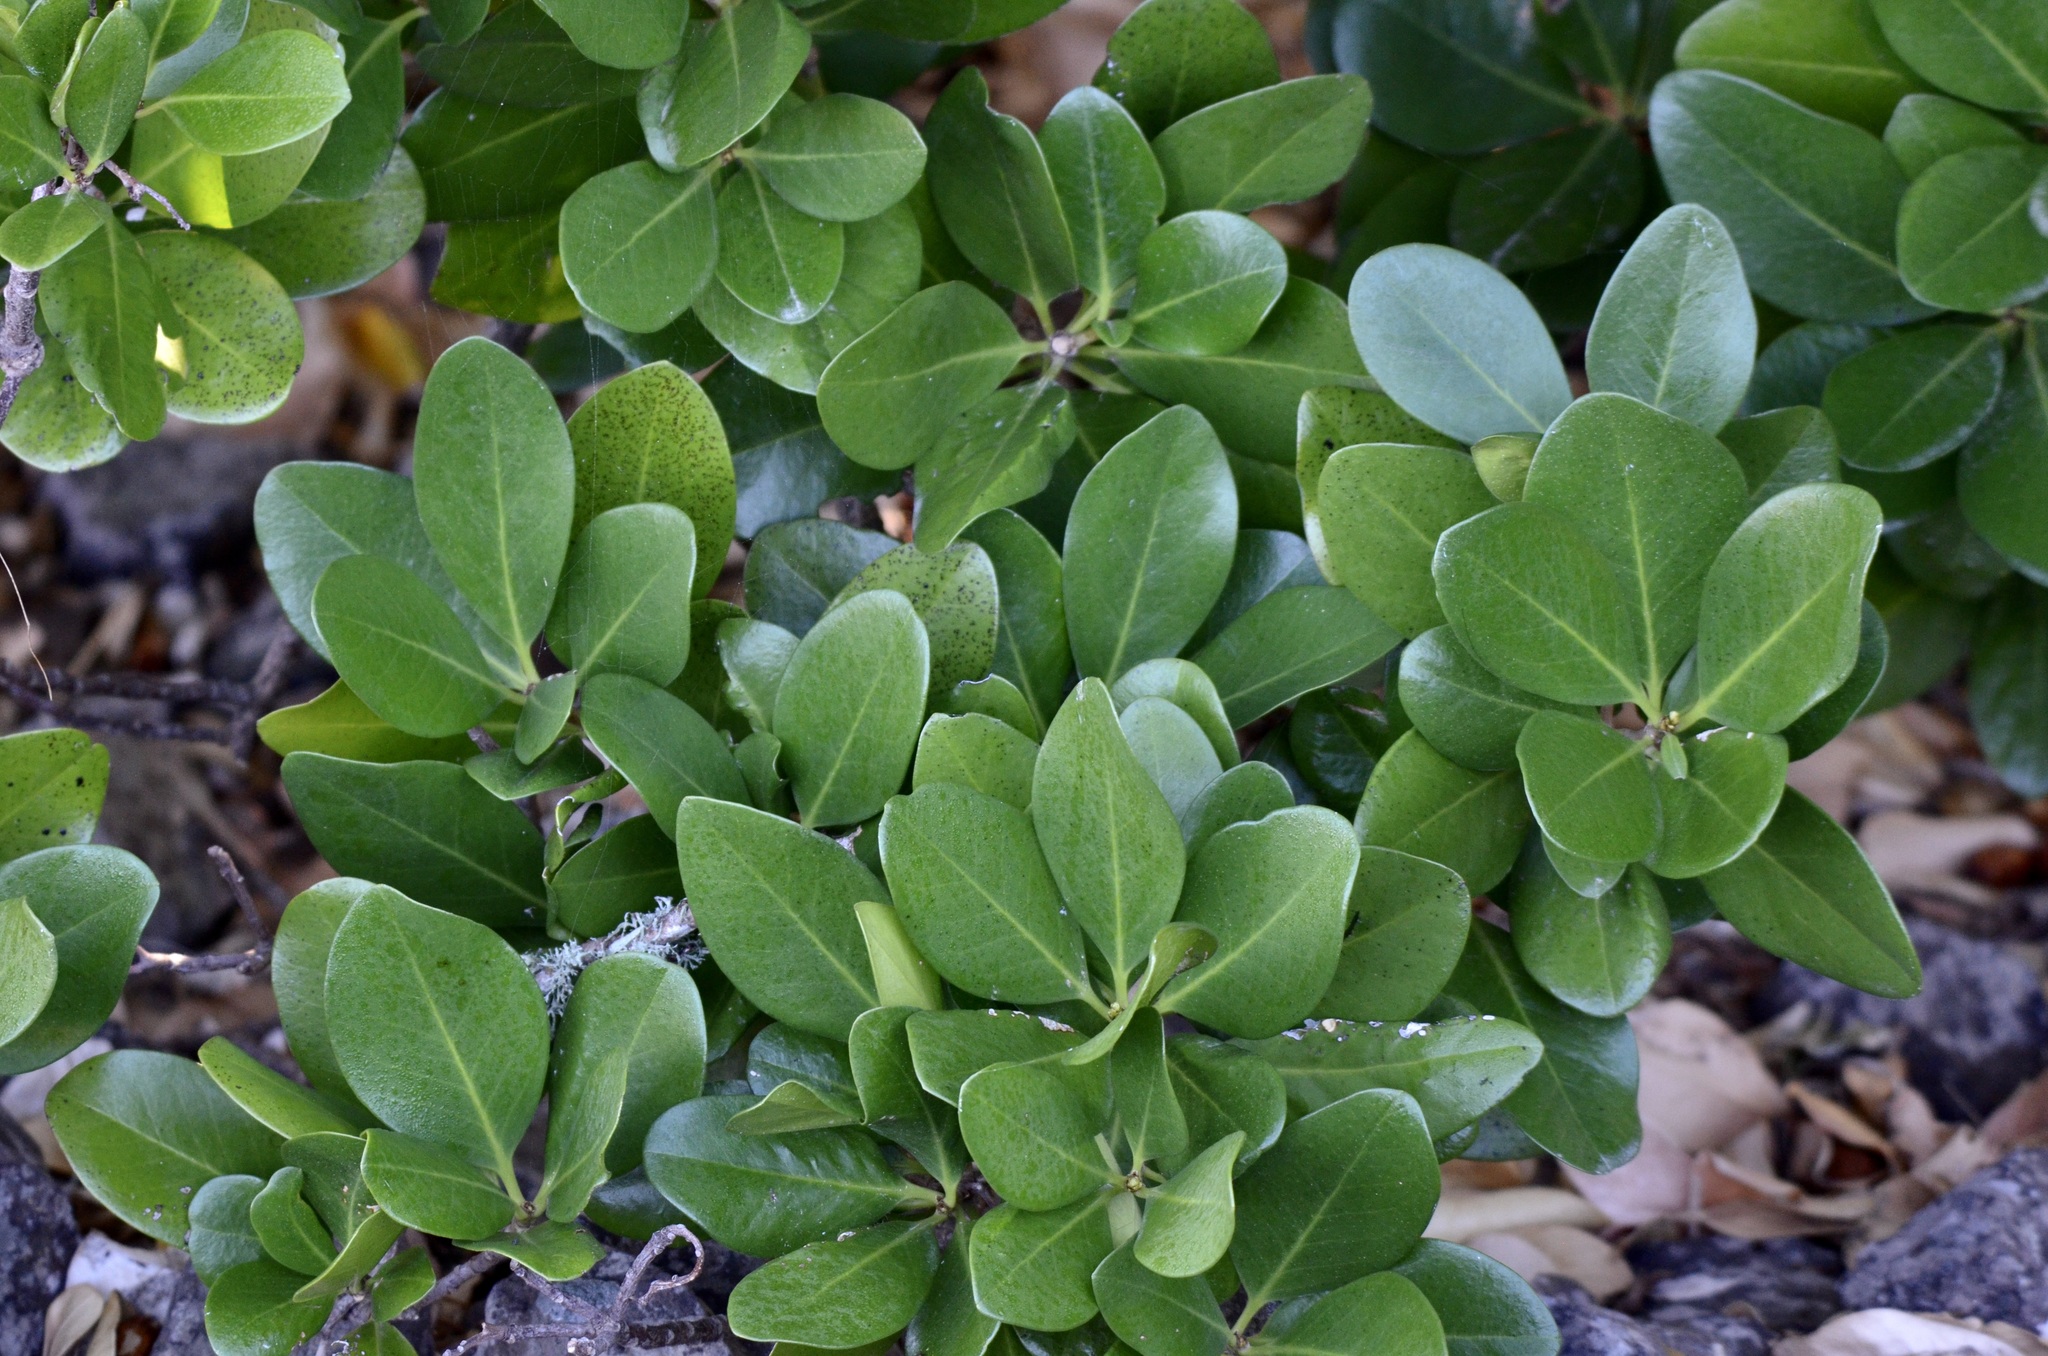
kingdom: Plantae
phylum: Tracheophyta
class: Magnoliopsida
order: Cucurbitales
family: Corynocarpaceae
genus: Corynocarpus
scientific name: Corynocarpus laevigatus
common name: New zealand laurel
